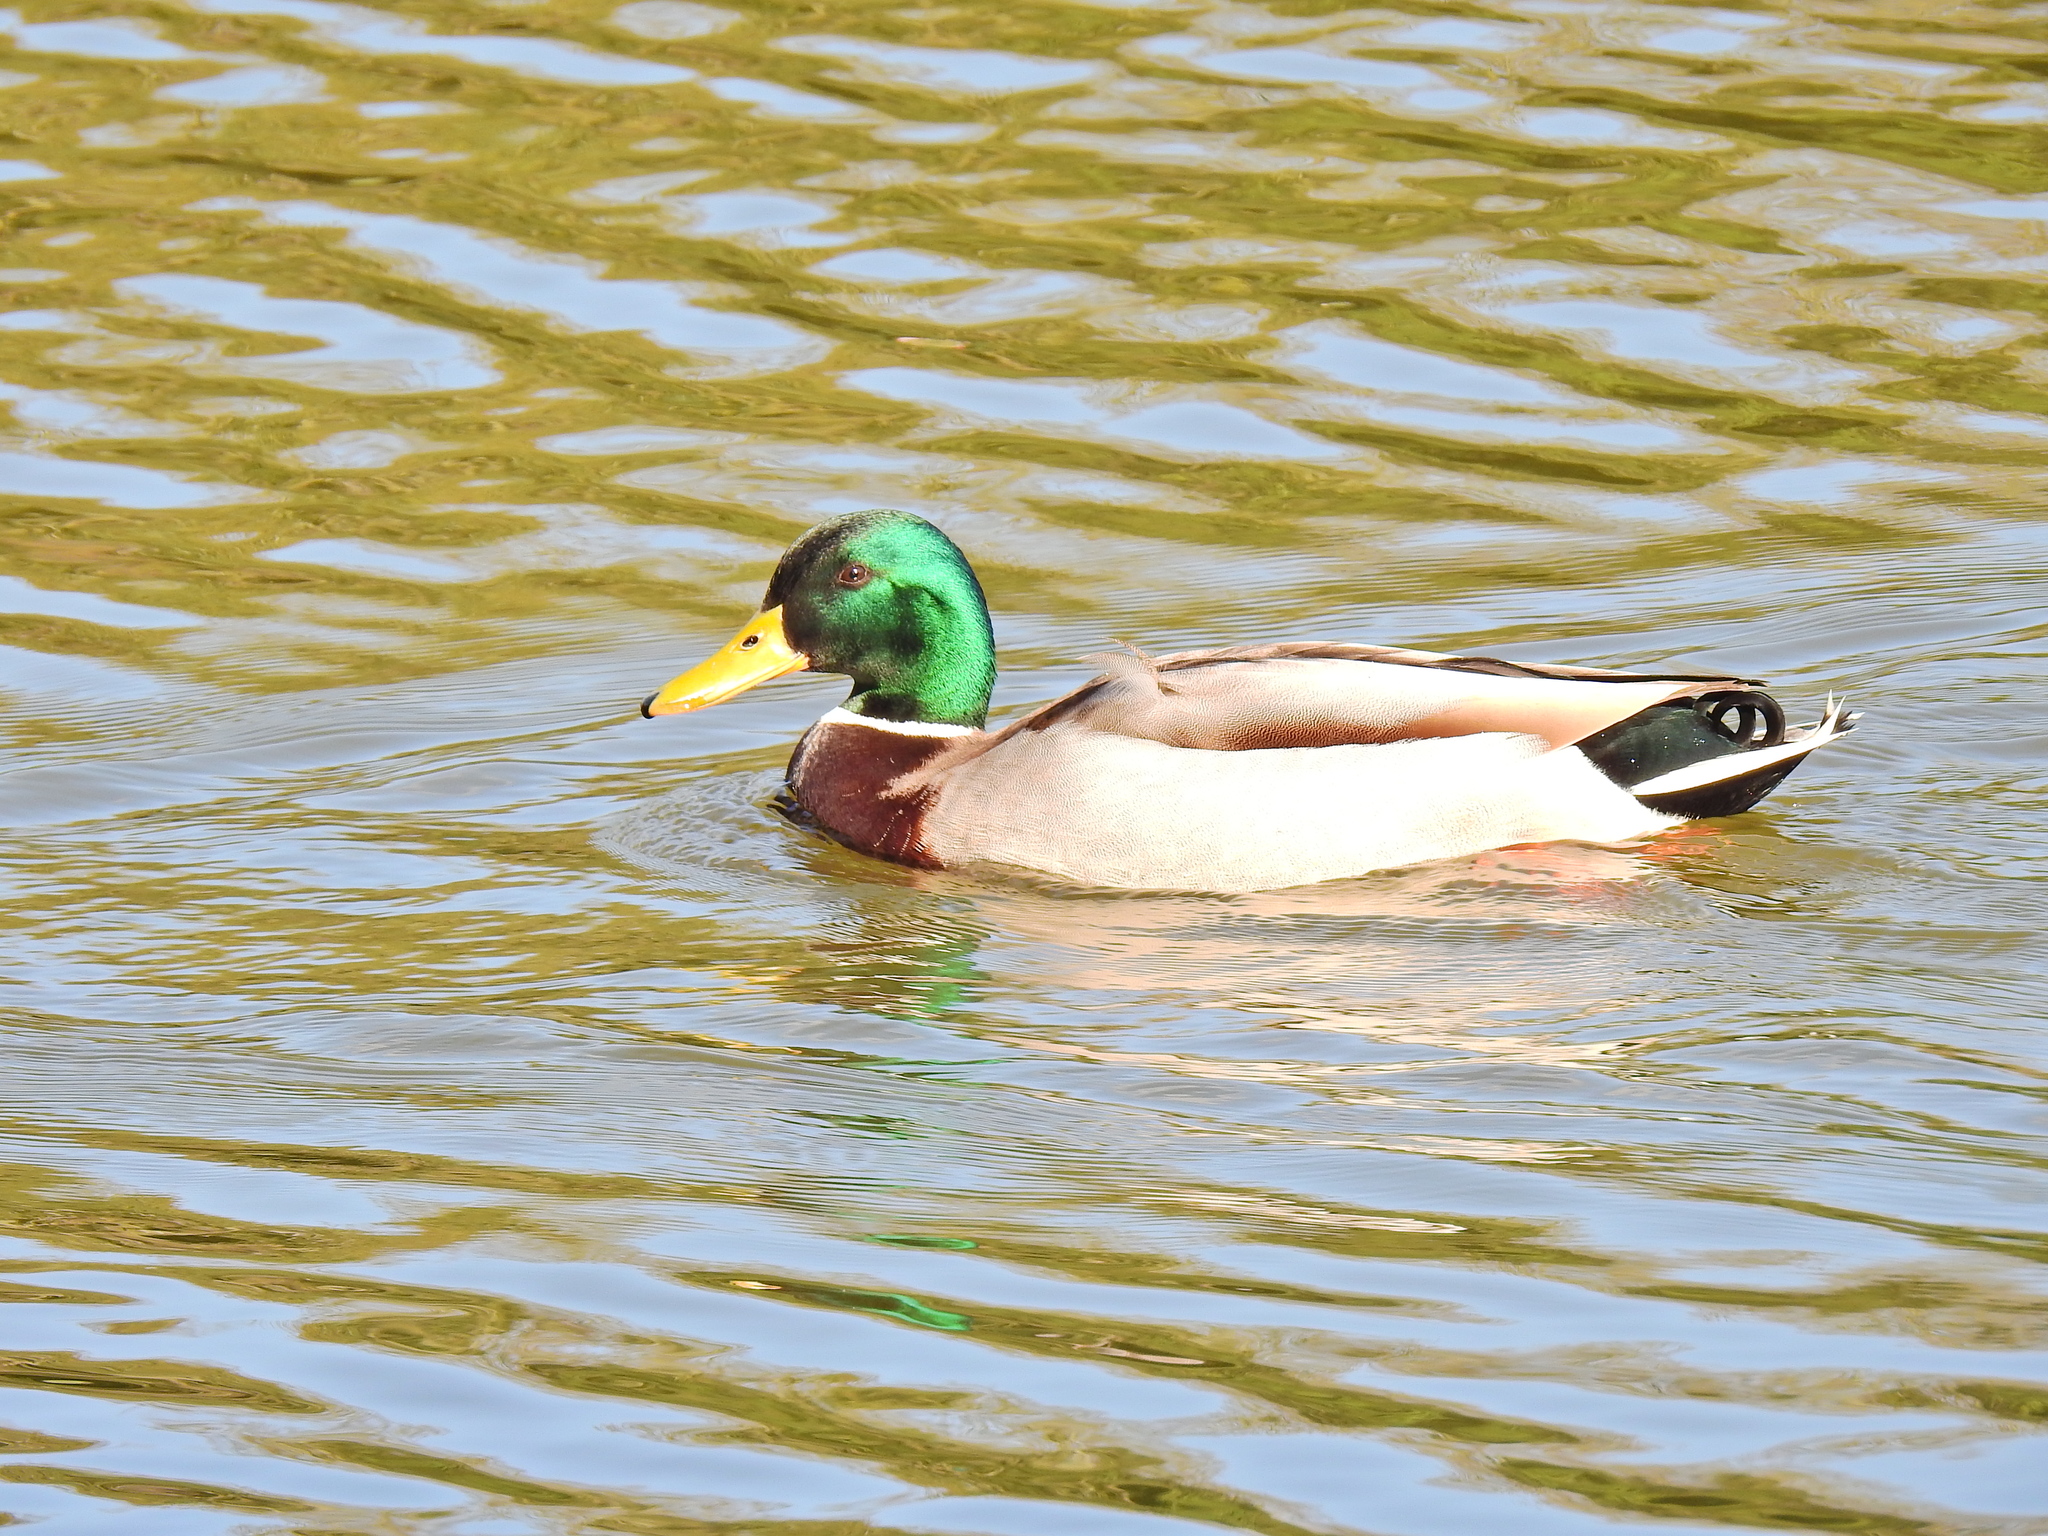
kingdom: Animalia
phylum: Chordata
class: Aves
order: Anseriformes
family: Anatidae
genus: Anas
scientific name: Anas platyrhynchos
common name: Mallard
